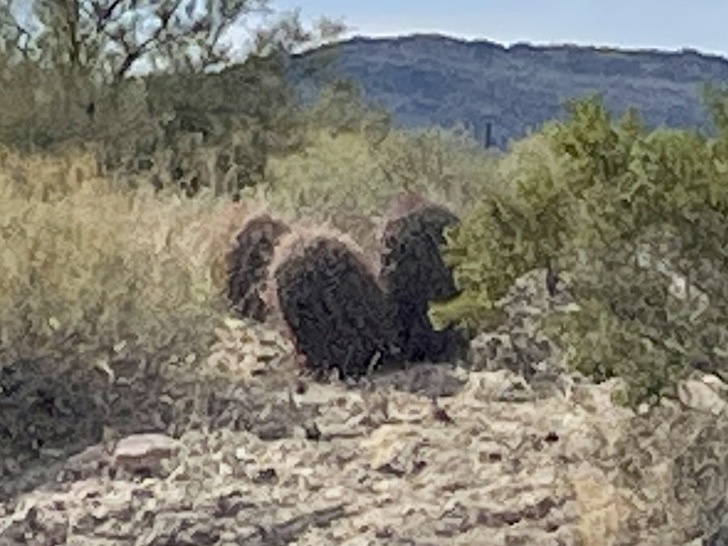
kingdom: Plantae
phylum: Tracheophyta
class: Magnoliopsida
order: Caryophyllales
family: Cactaceae
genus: Ferocactus
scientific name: Ferocactus cylindraceus
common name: California barrel cactus
